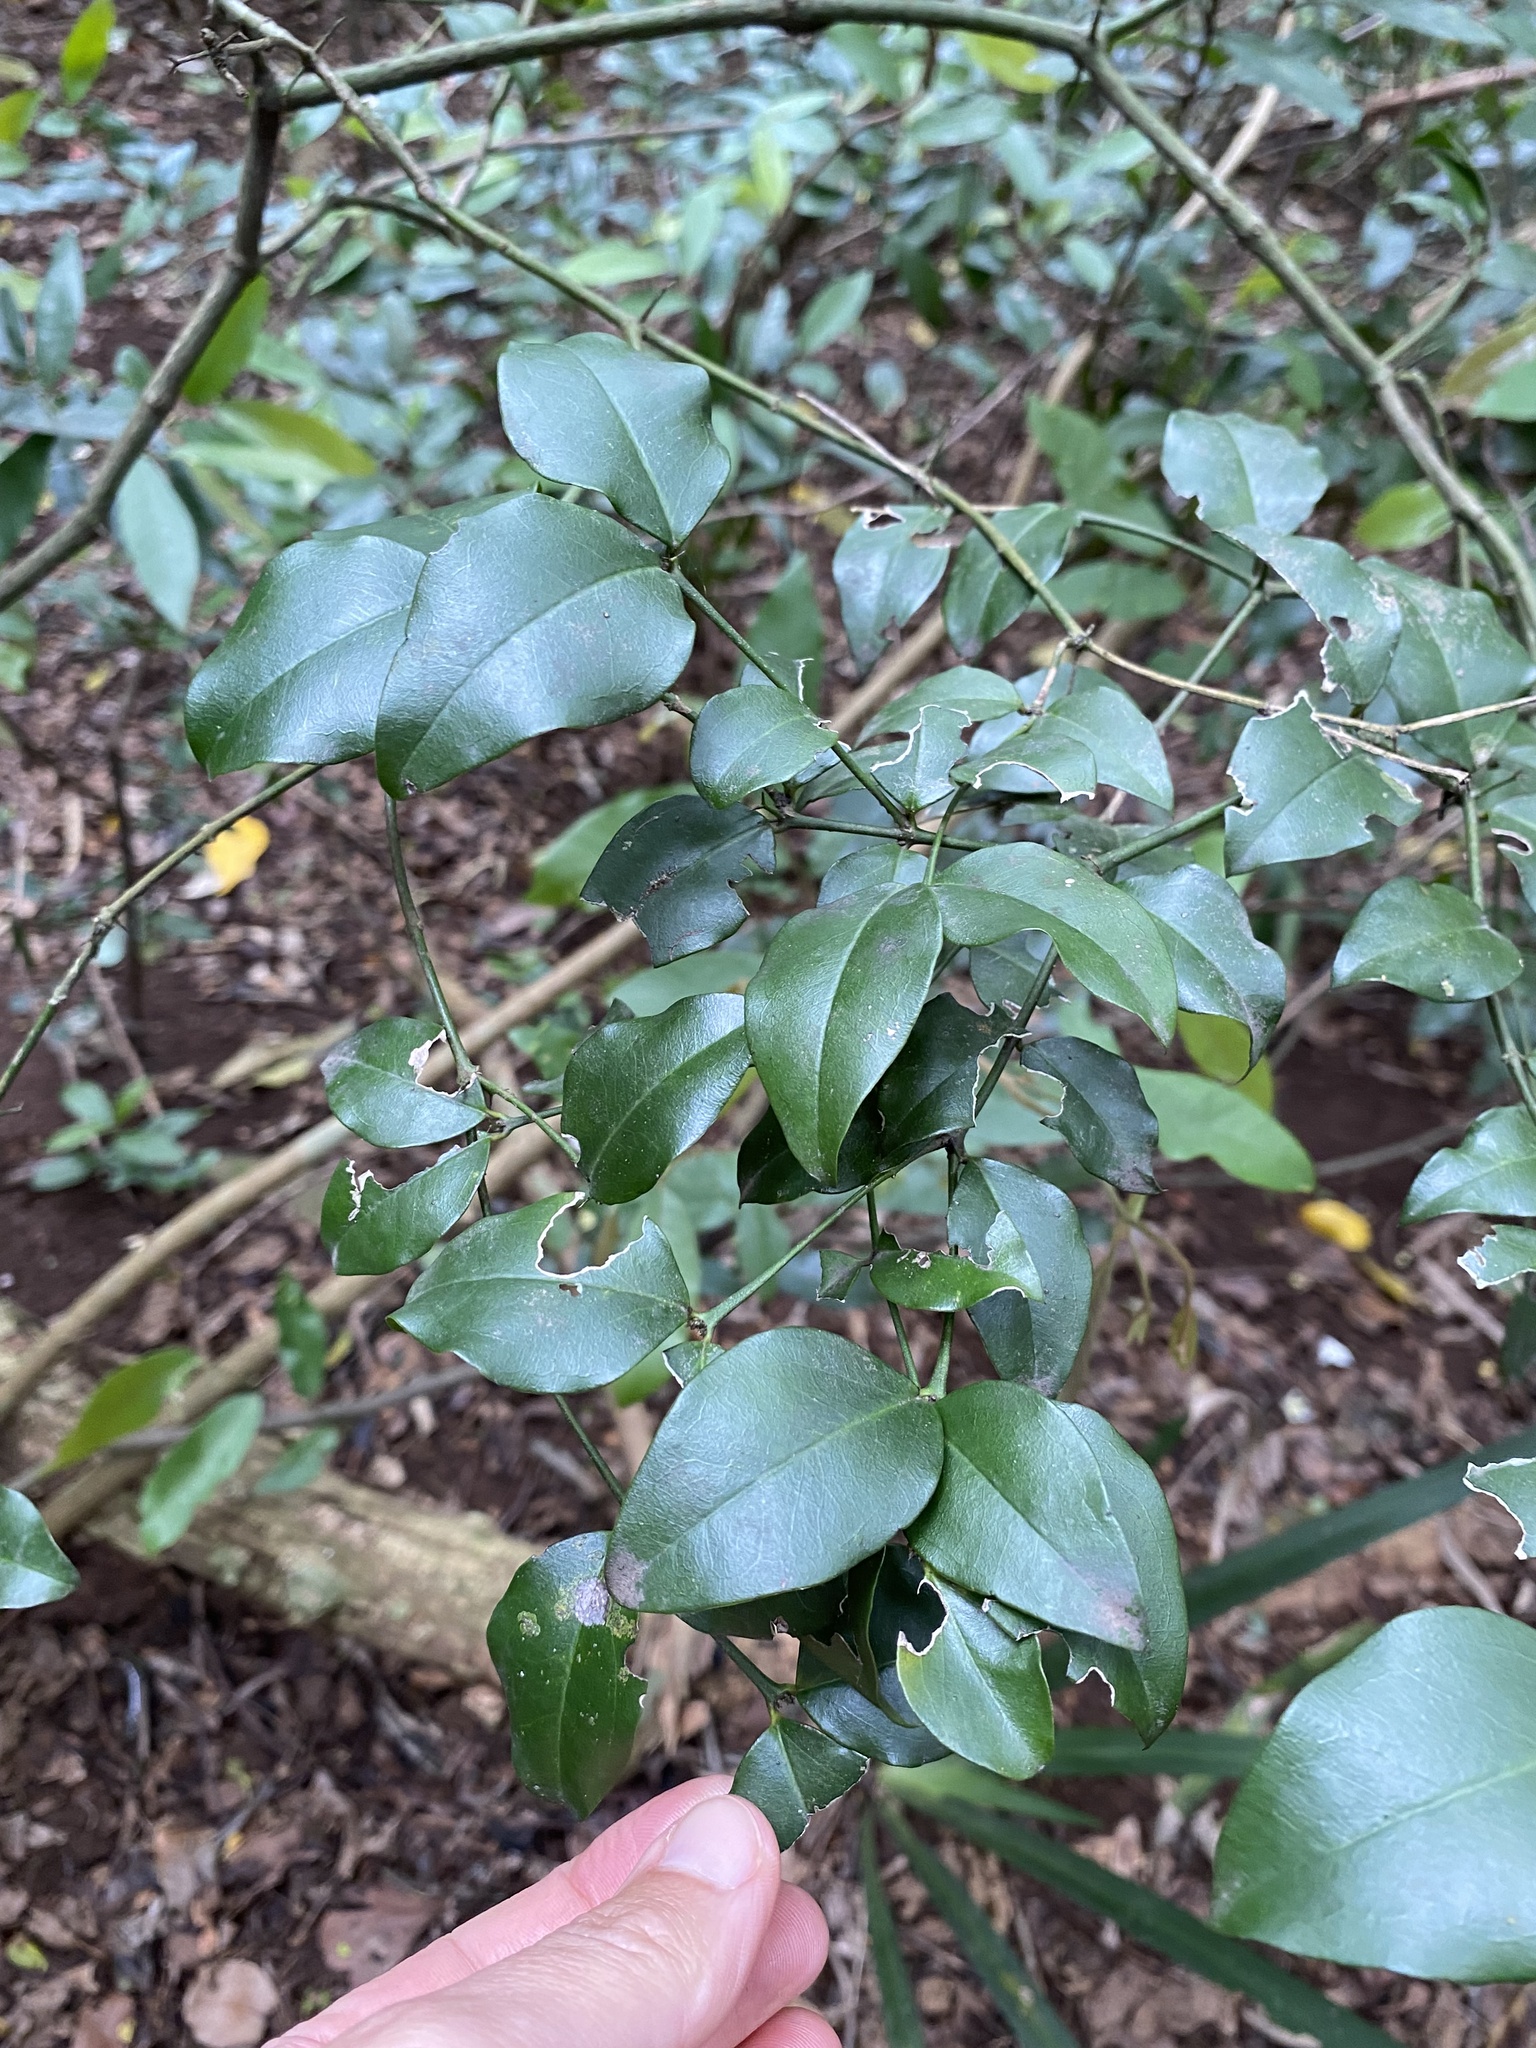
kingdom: Plantae
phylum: Tracheophyta
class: Magnoliopsida
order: Gentianales
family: Apocynaceae
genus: Carissa
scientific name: Carissa bispinosa
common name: Forest num-num
